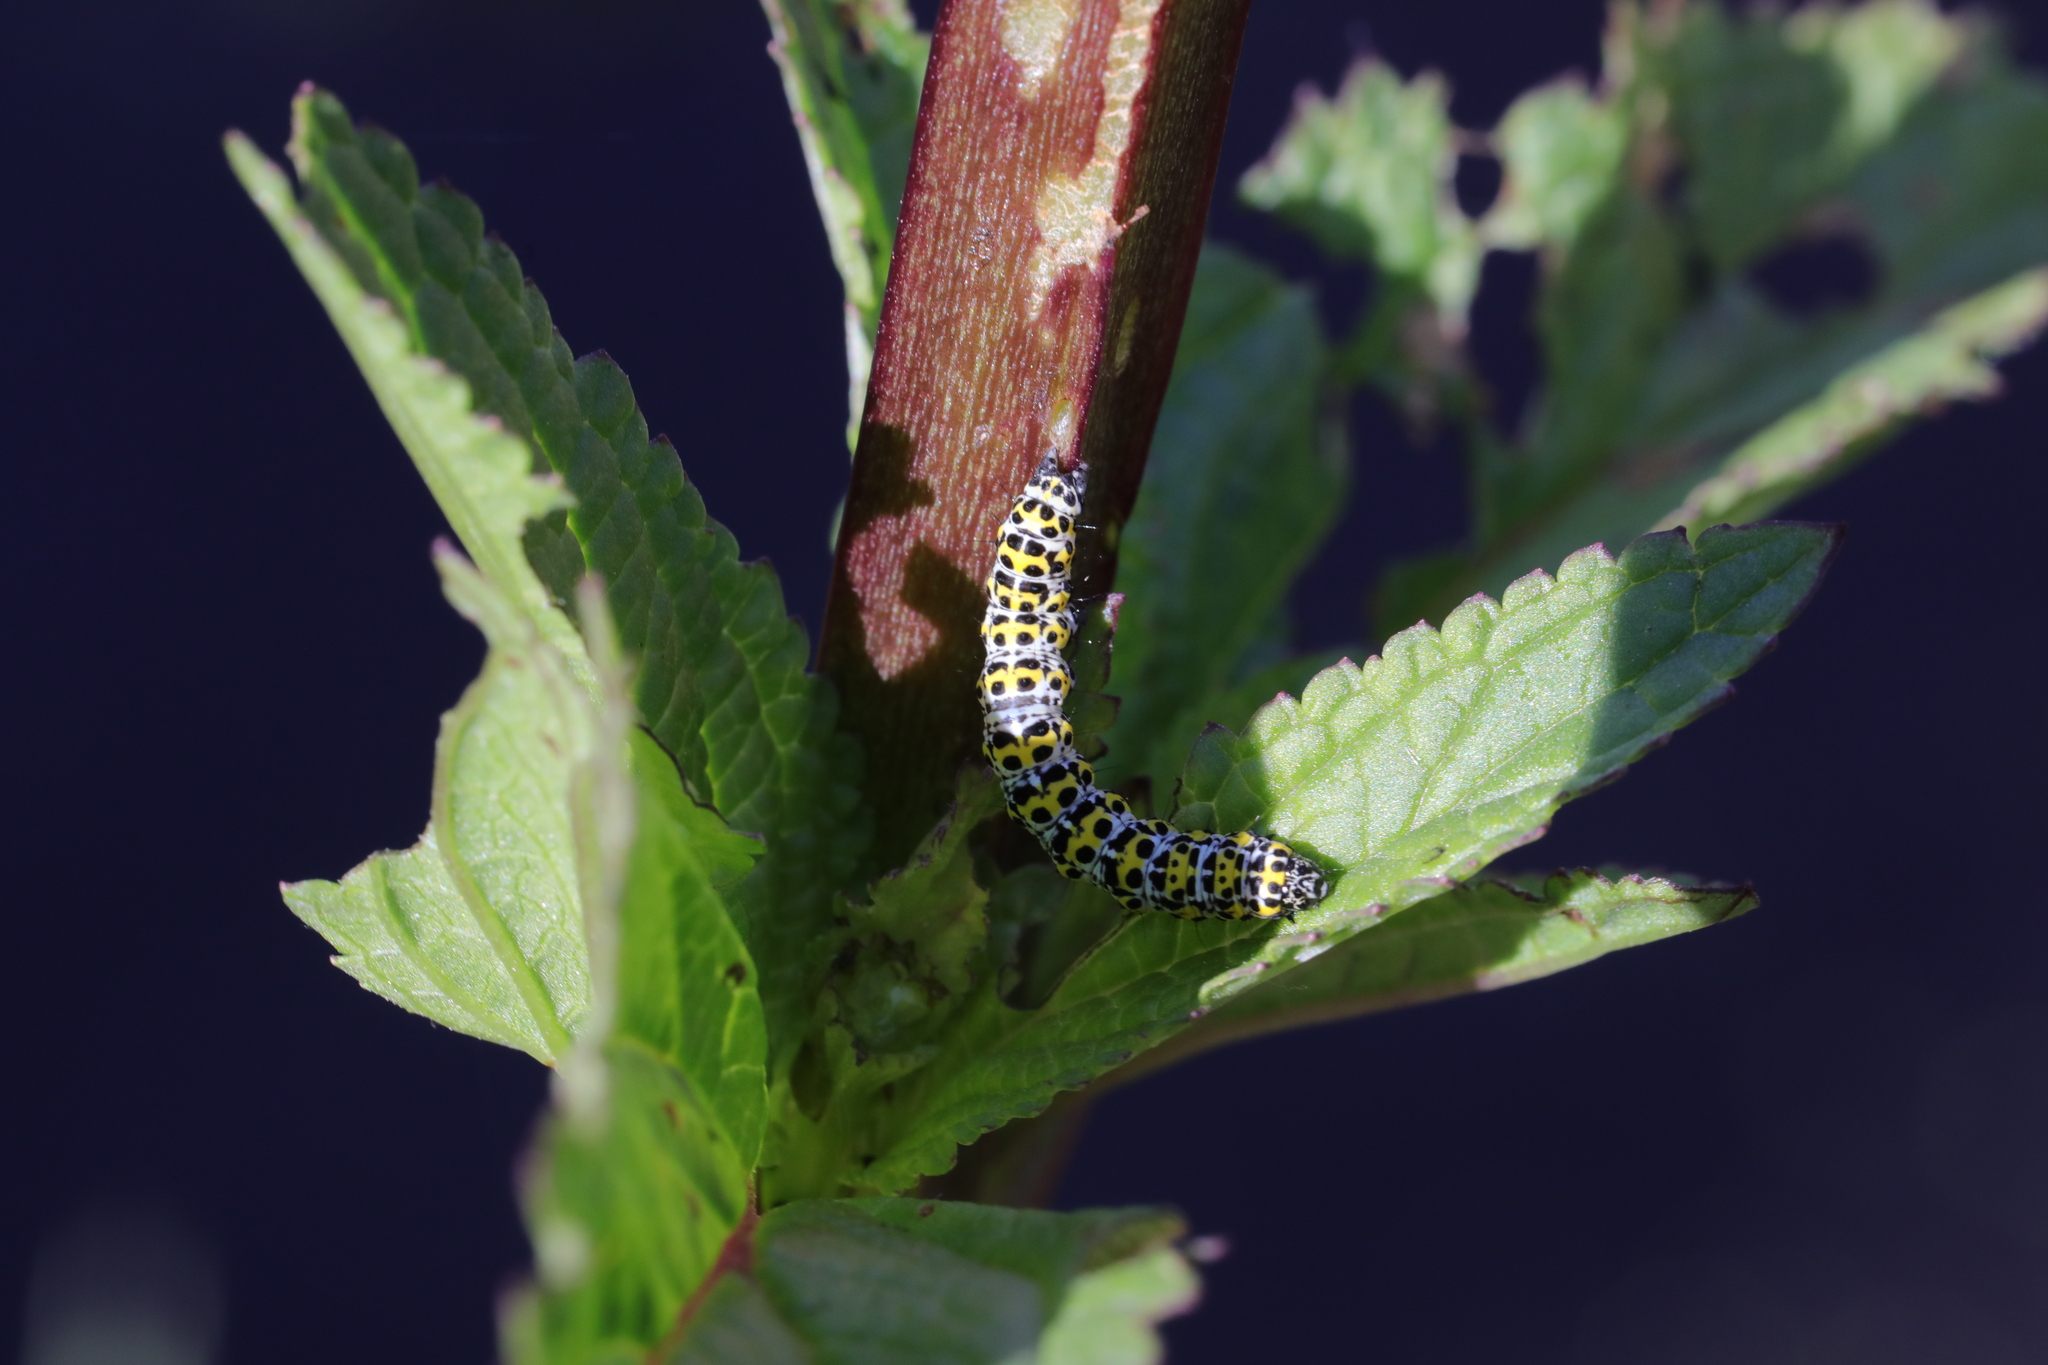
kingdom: Animalia
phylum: Arthropoda
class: Insecta
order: Lepidoptera
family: Noctuidae
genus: Cucullia
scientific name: Cucullia verbasci
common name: Mullein
